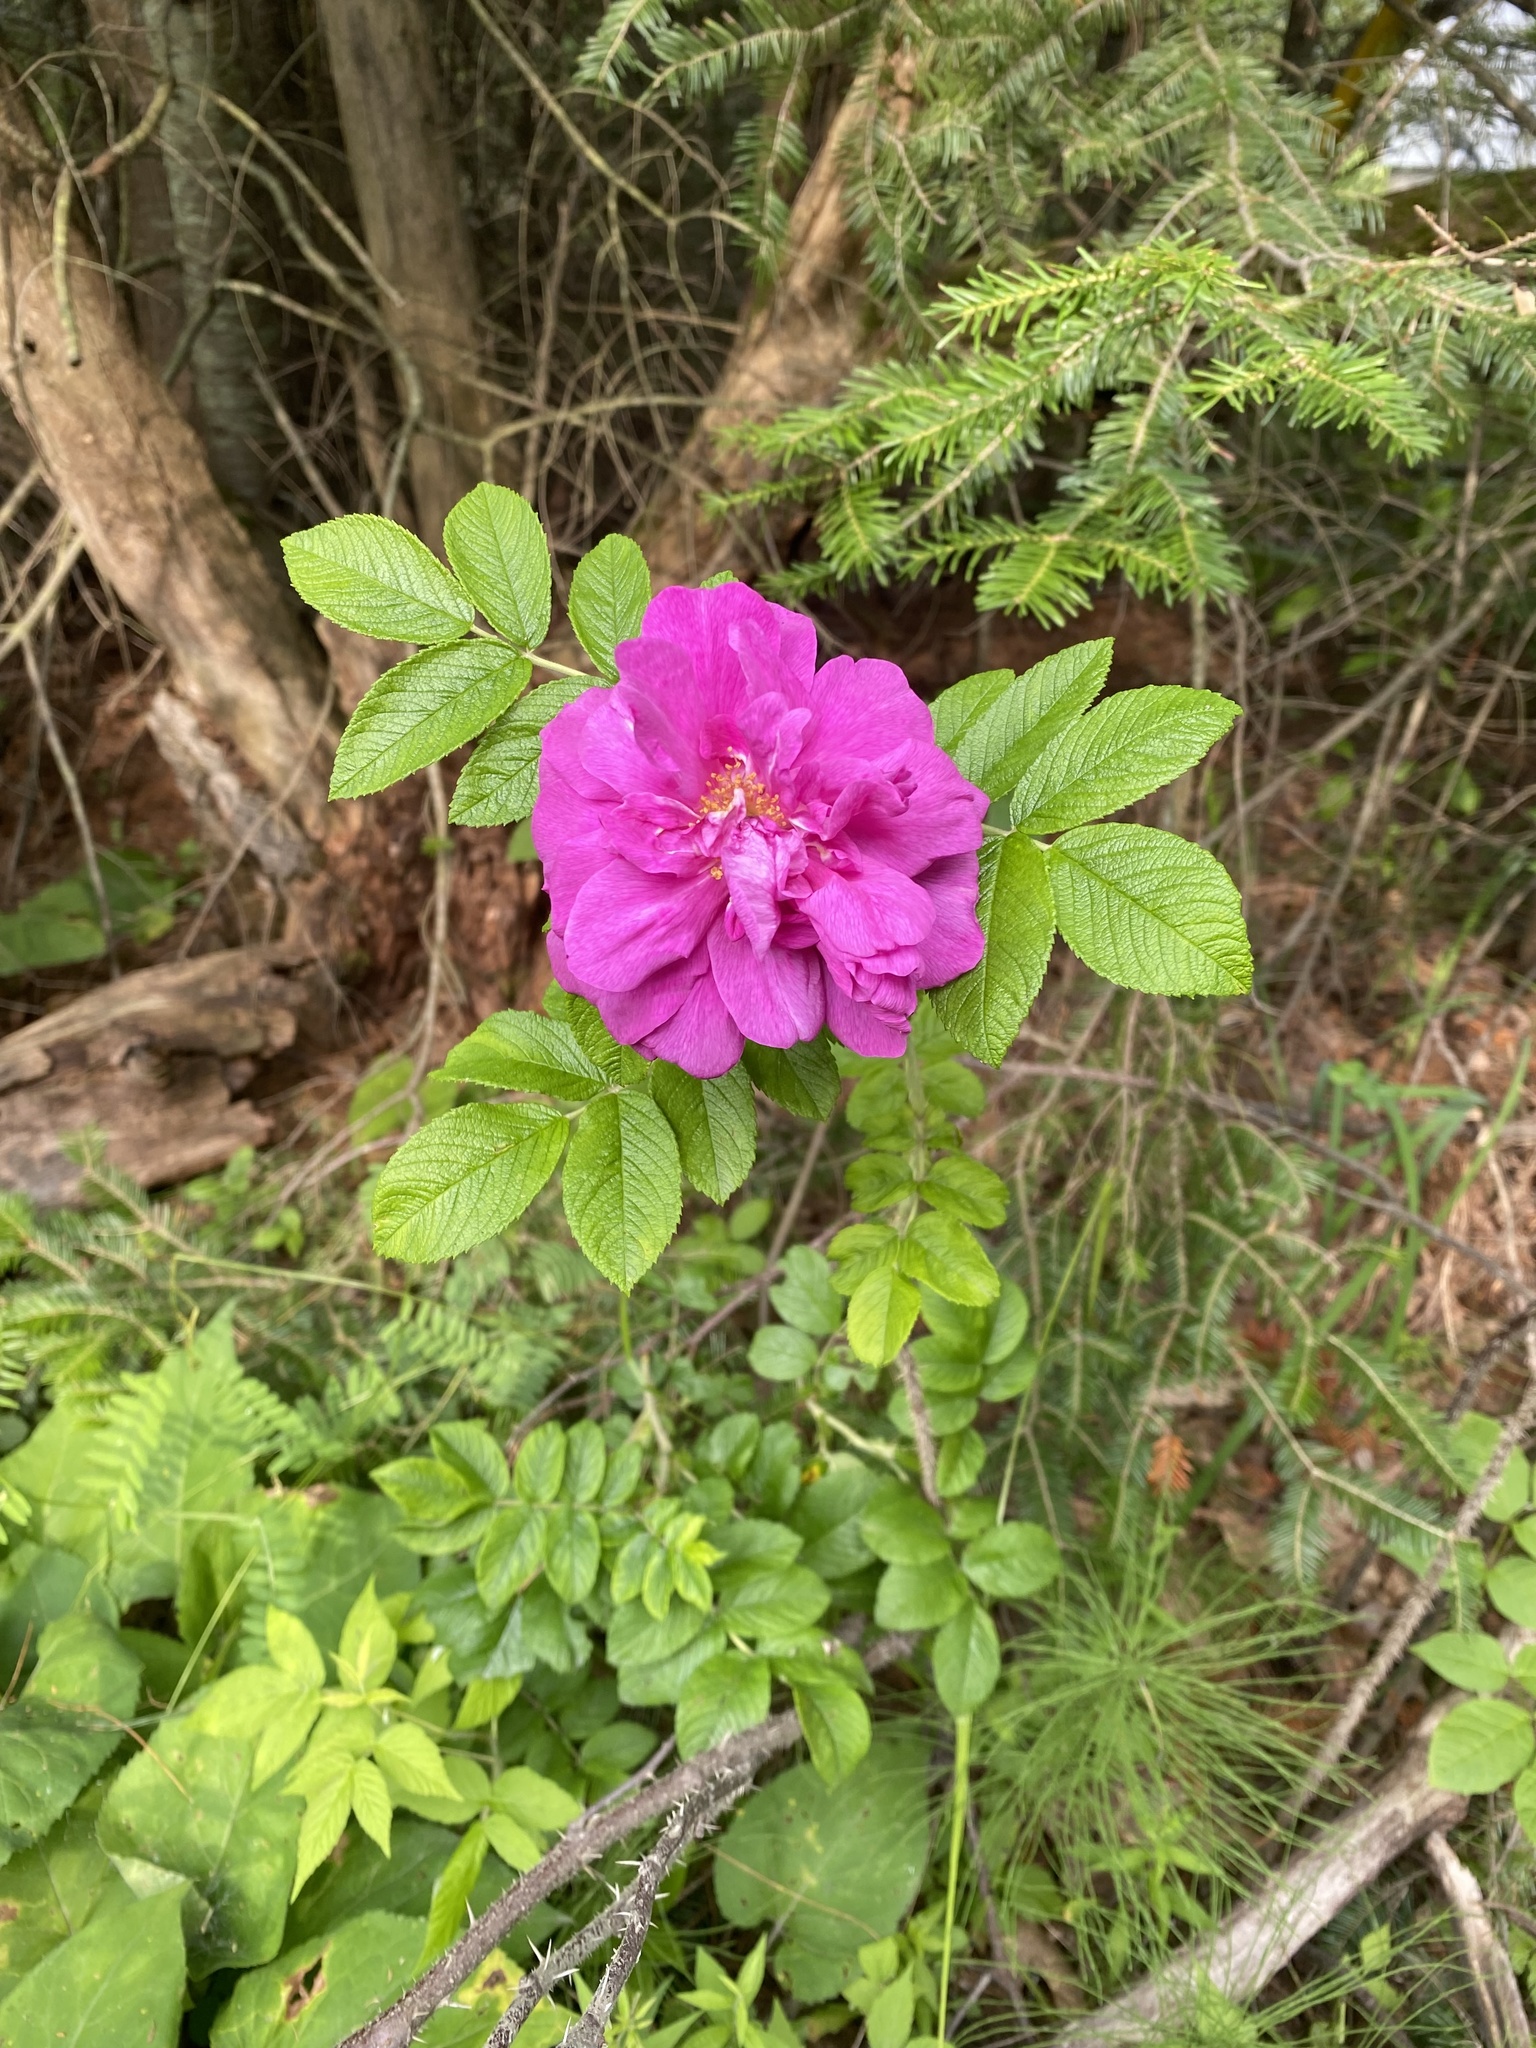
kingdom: Plantae
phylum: Tracheophyta
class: Magnoliopsida
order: Rosales
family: Rosaceae
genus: Rosa
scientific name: Rosa rugosa
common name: Japanese rose
